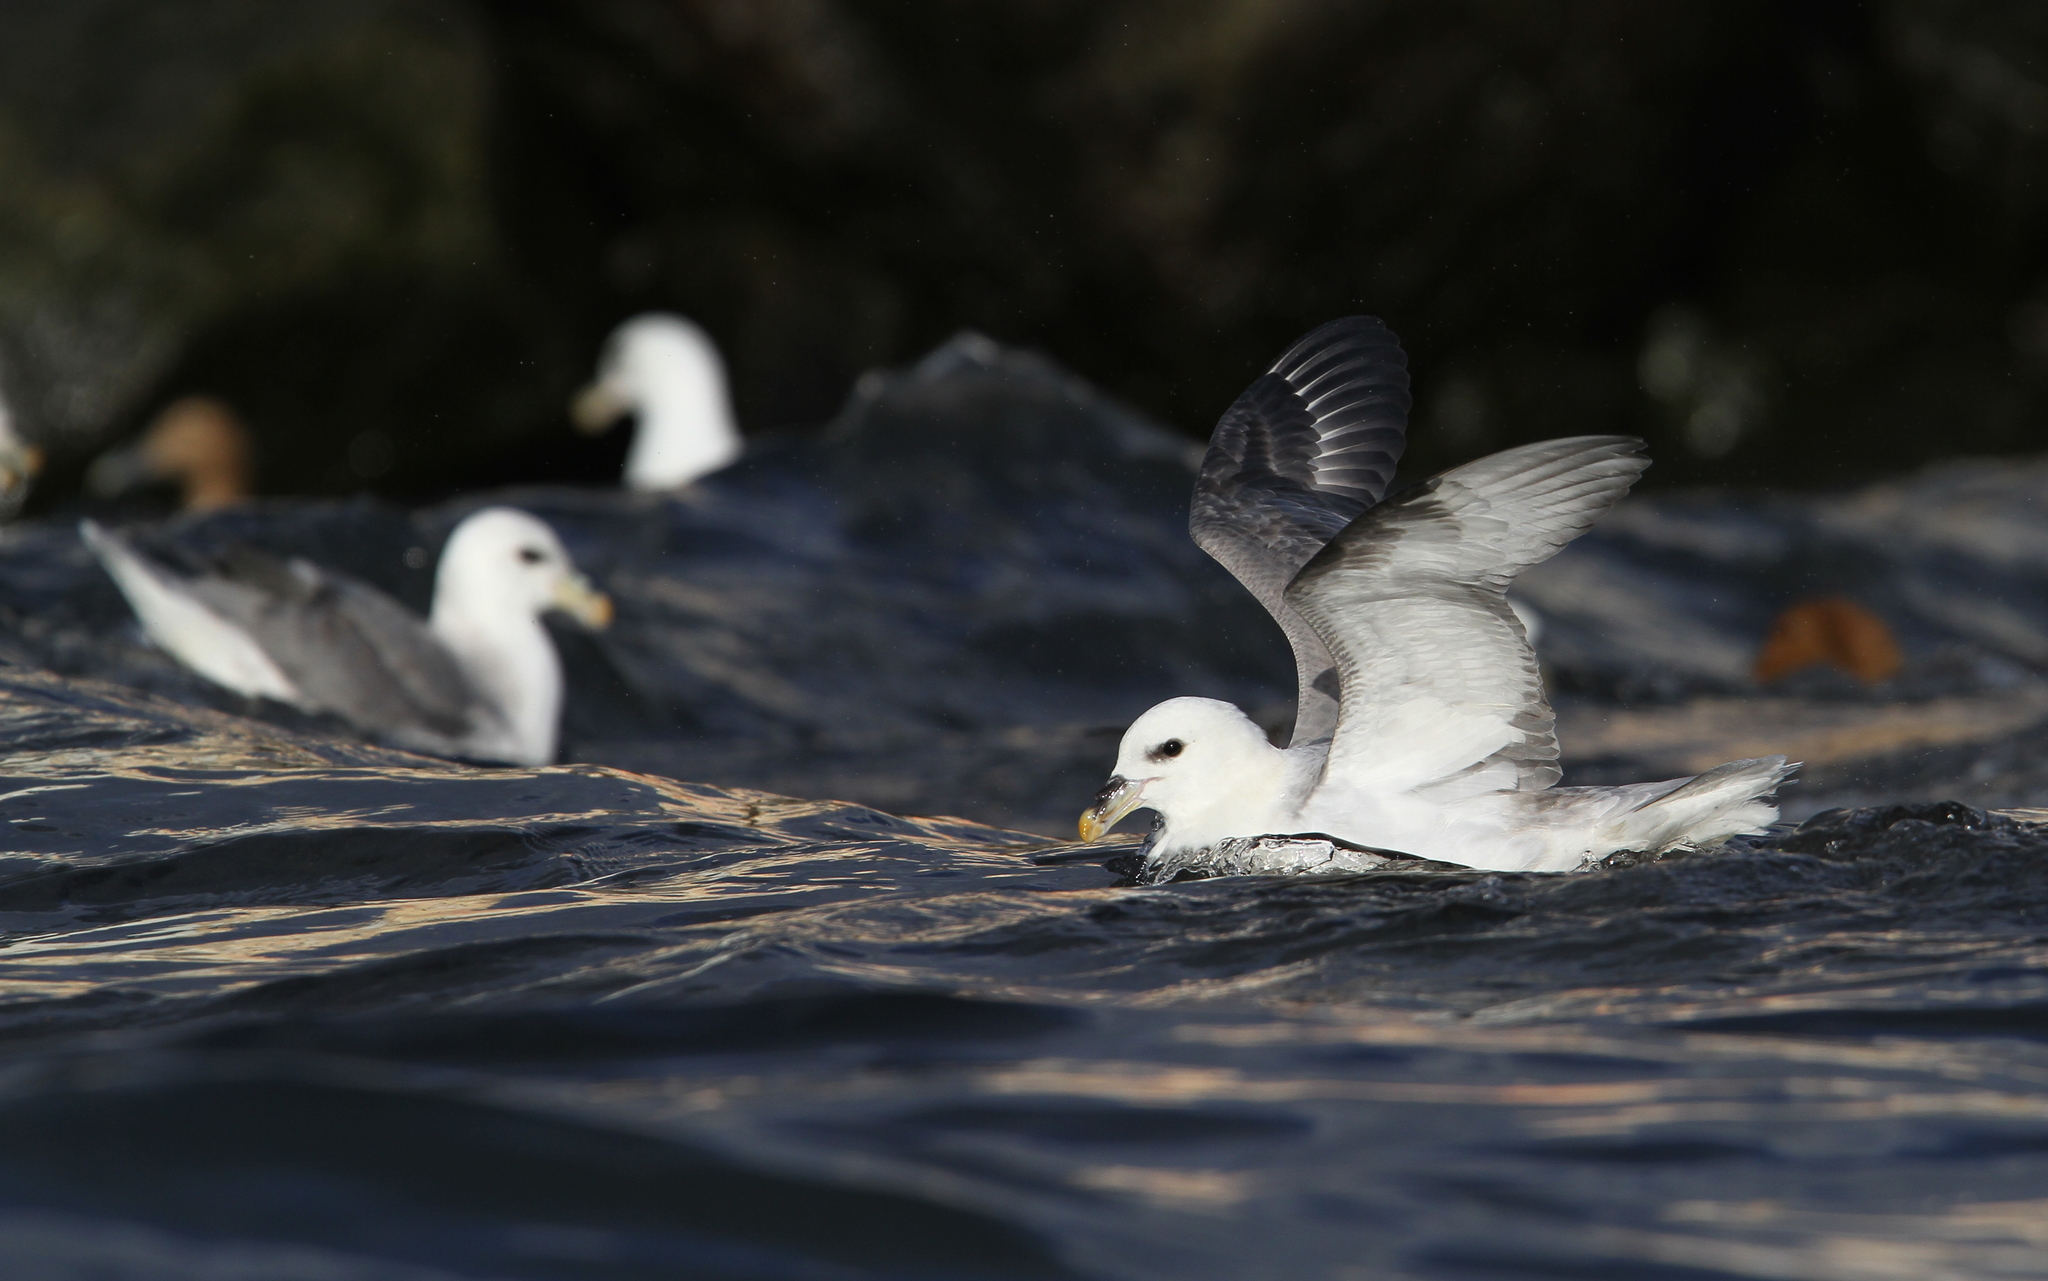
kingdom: Animalia
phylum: Chordata
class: Aves
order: Procellariiformes
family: Procellariidae
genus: Fulmarus
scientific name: Fulmarus glacialis
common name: Northern fulmar
